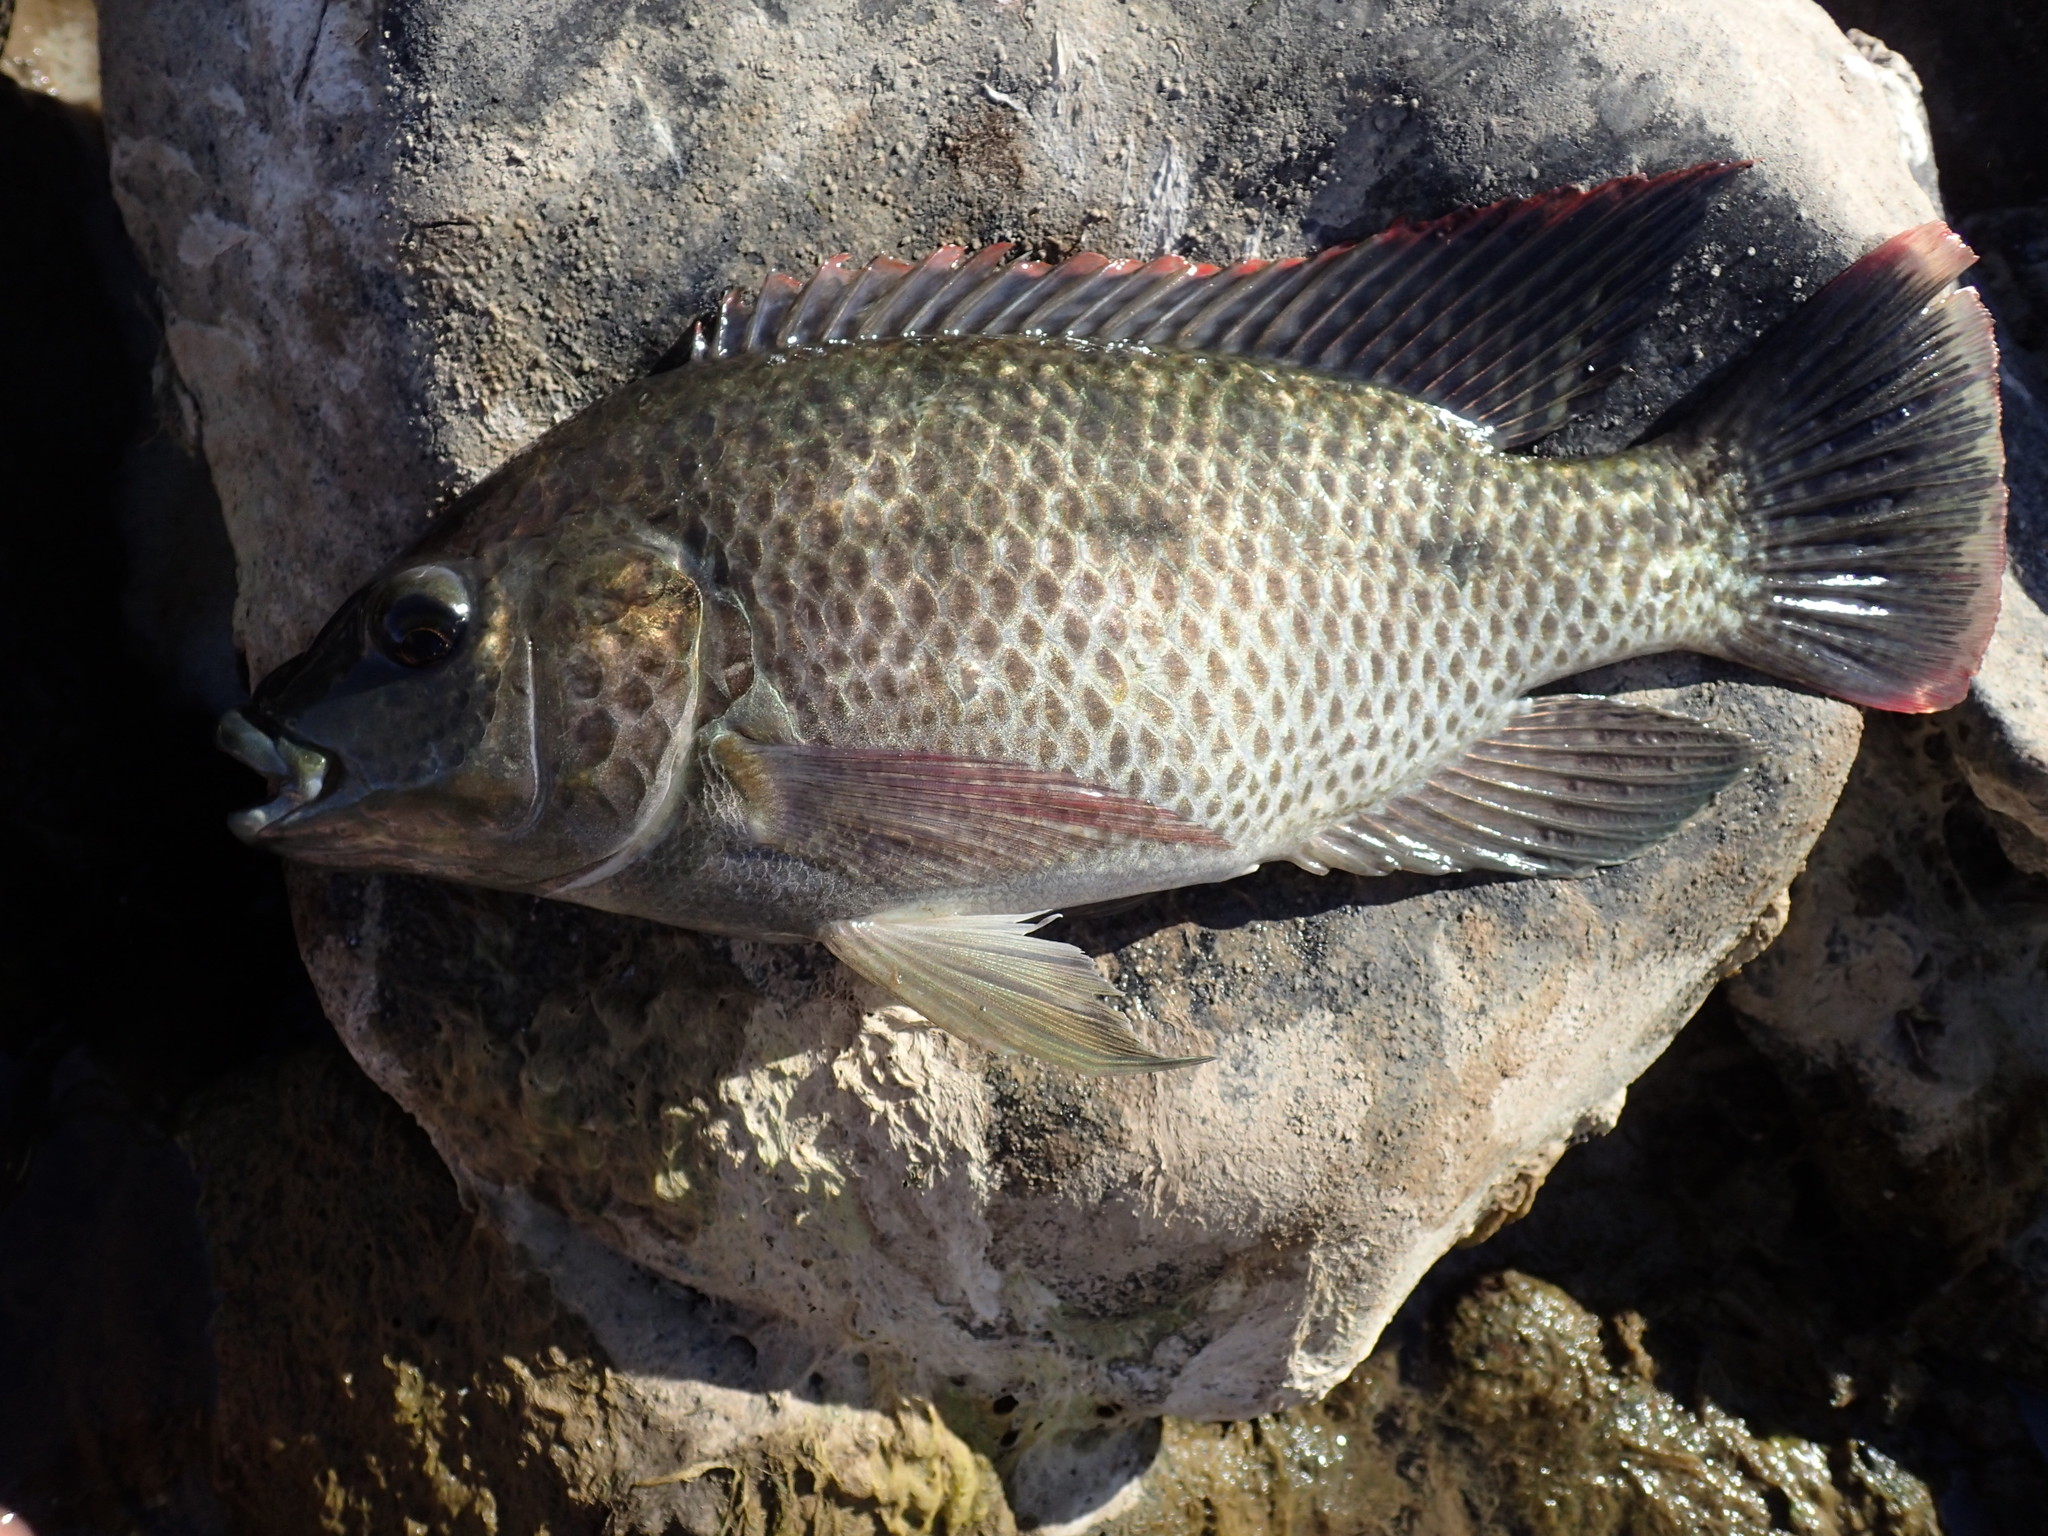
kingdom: Animalia
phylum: Chordata
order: Perciformes
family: Cichlidae
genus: Oreochromis
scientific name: Oreochromis mossambicus
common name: Mozambique tilapia
